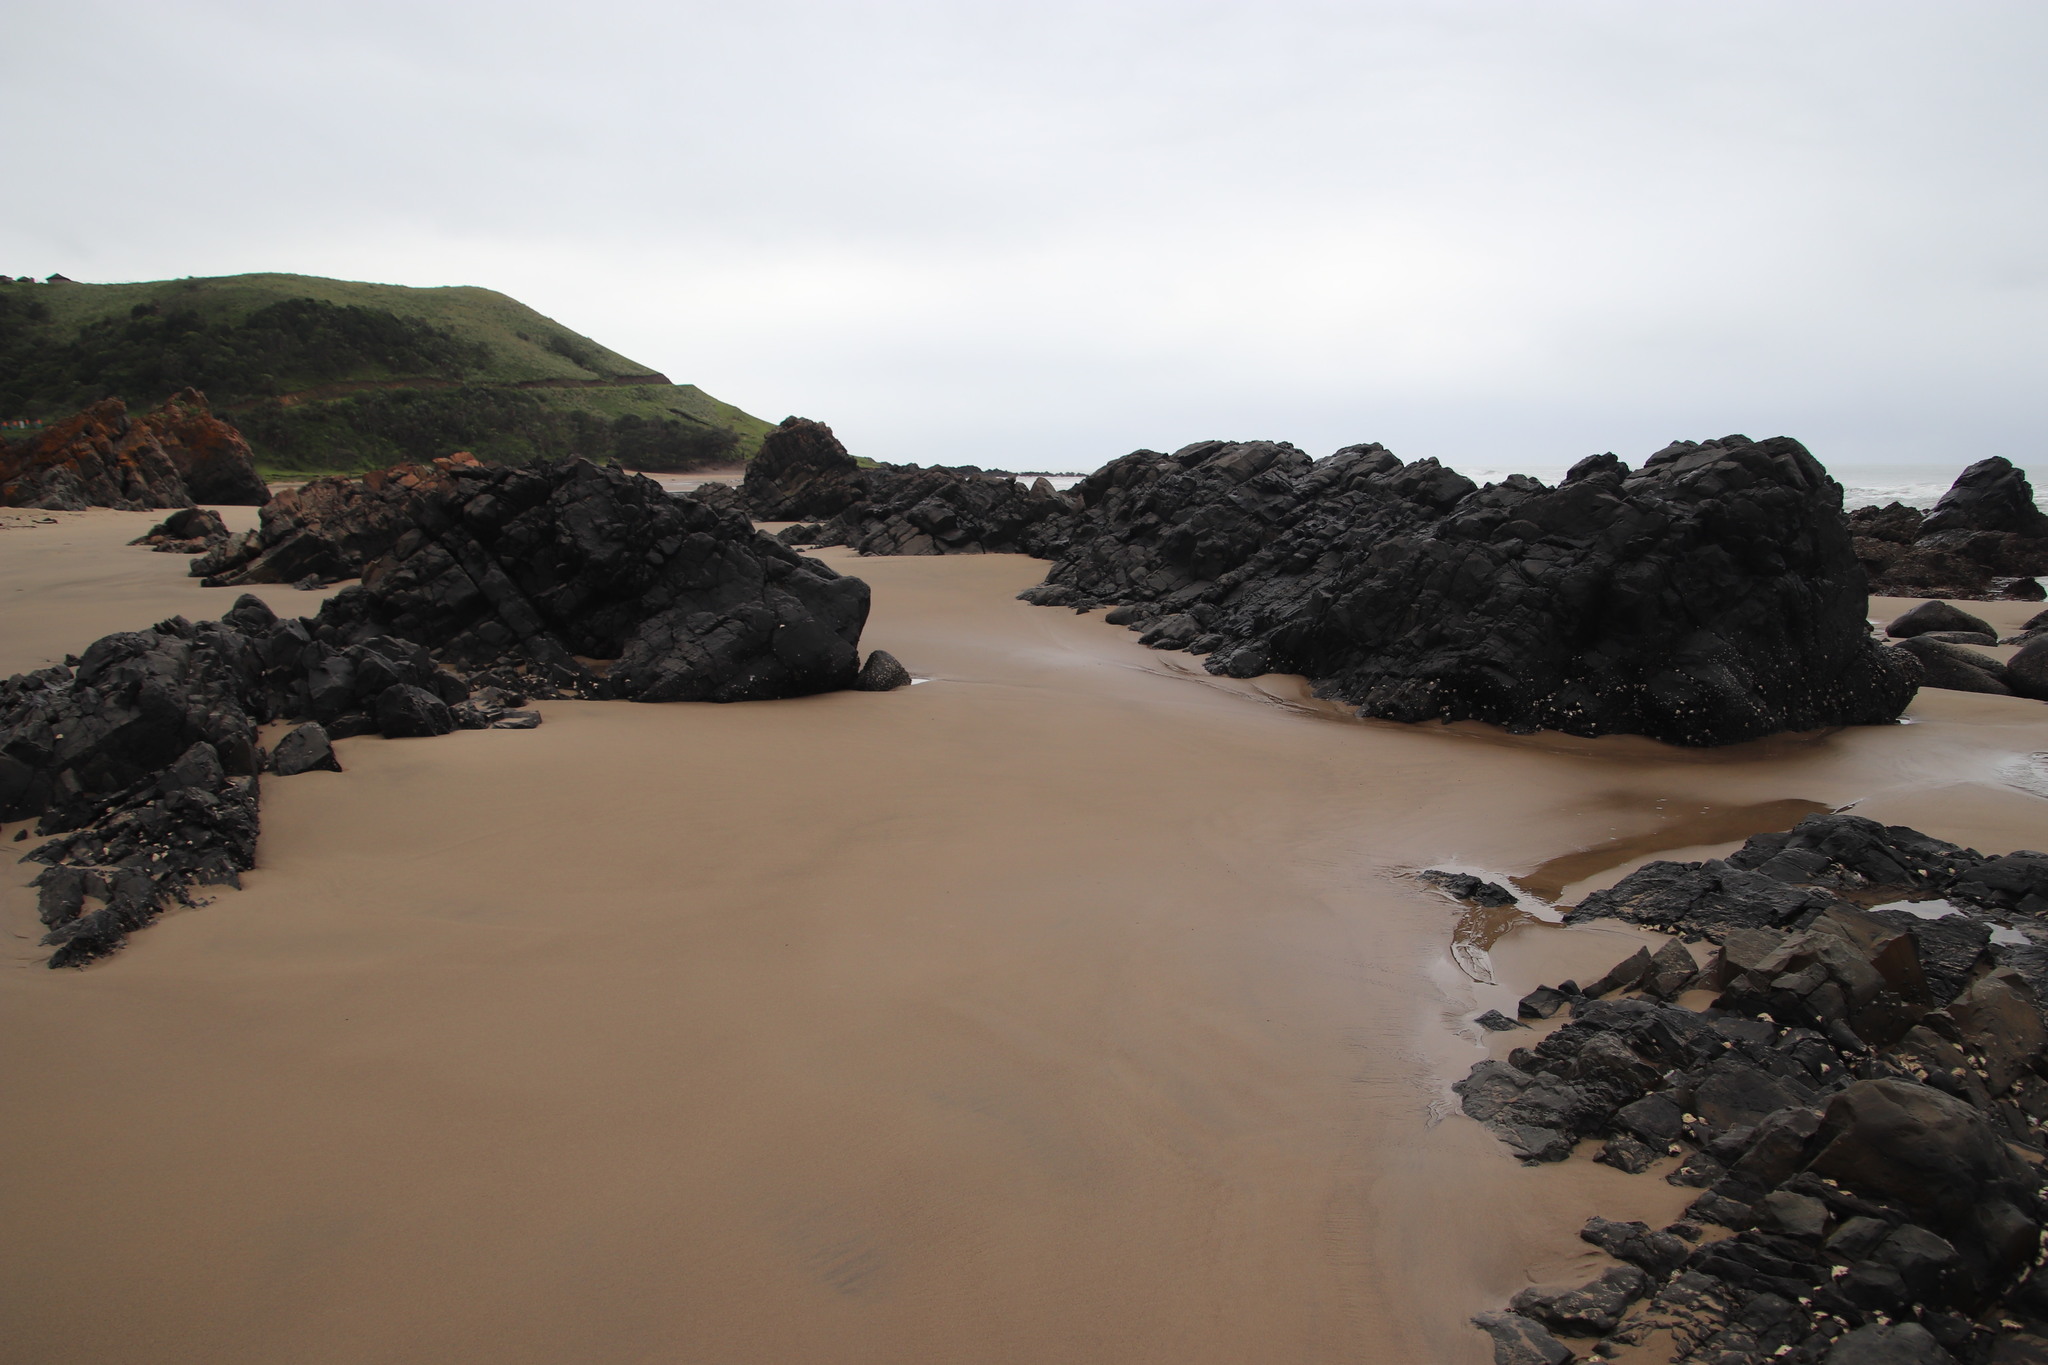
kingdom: Animalia
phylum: Mollusca
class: Bivalvia
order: Ostreida
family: Ostreidae
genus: Saccostrea
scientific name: Saccostrea cuccullata
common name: Natal rock oyster
